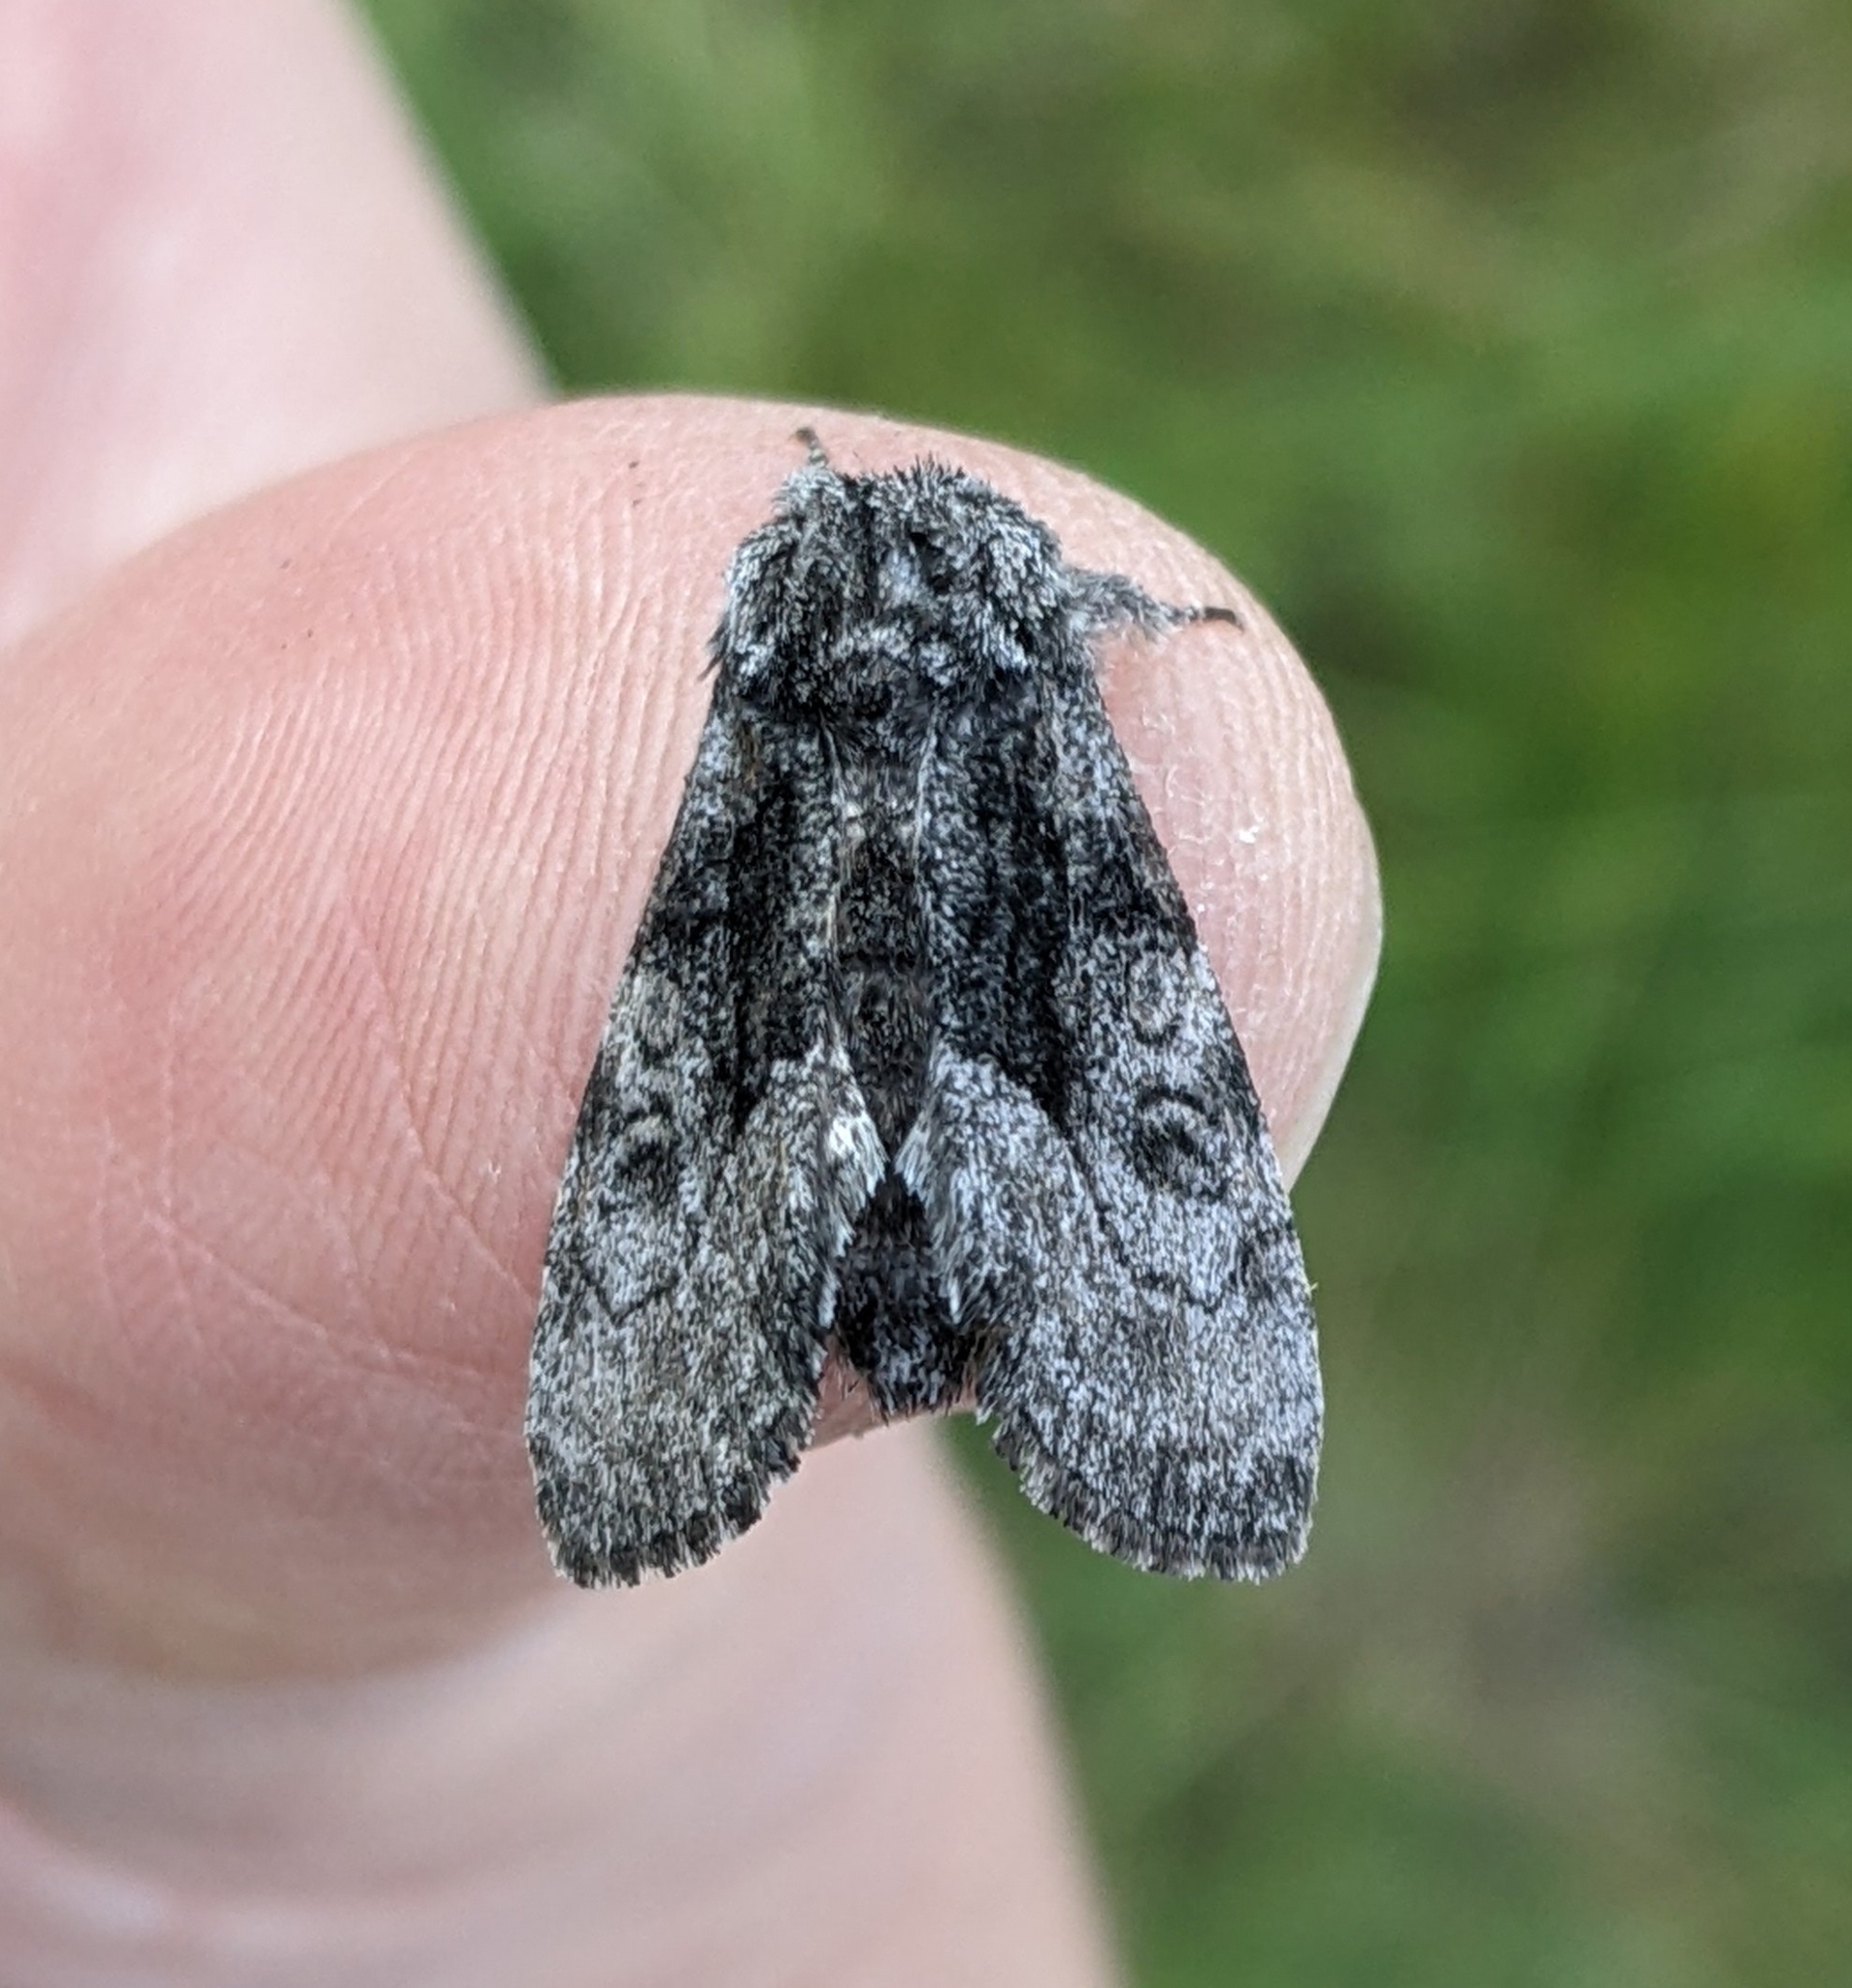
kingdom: Animalia
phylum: Arthropoda
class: Insecta
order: Lepidoptera
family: Noctuidae
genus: Raphia
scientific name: Raphia frater
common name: Brother
